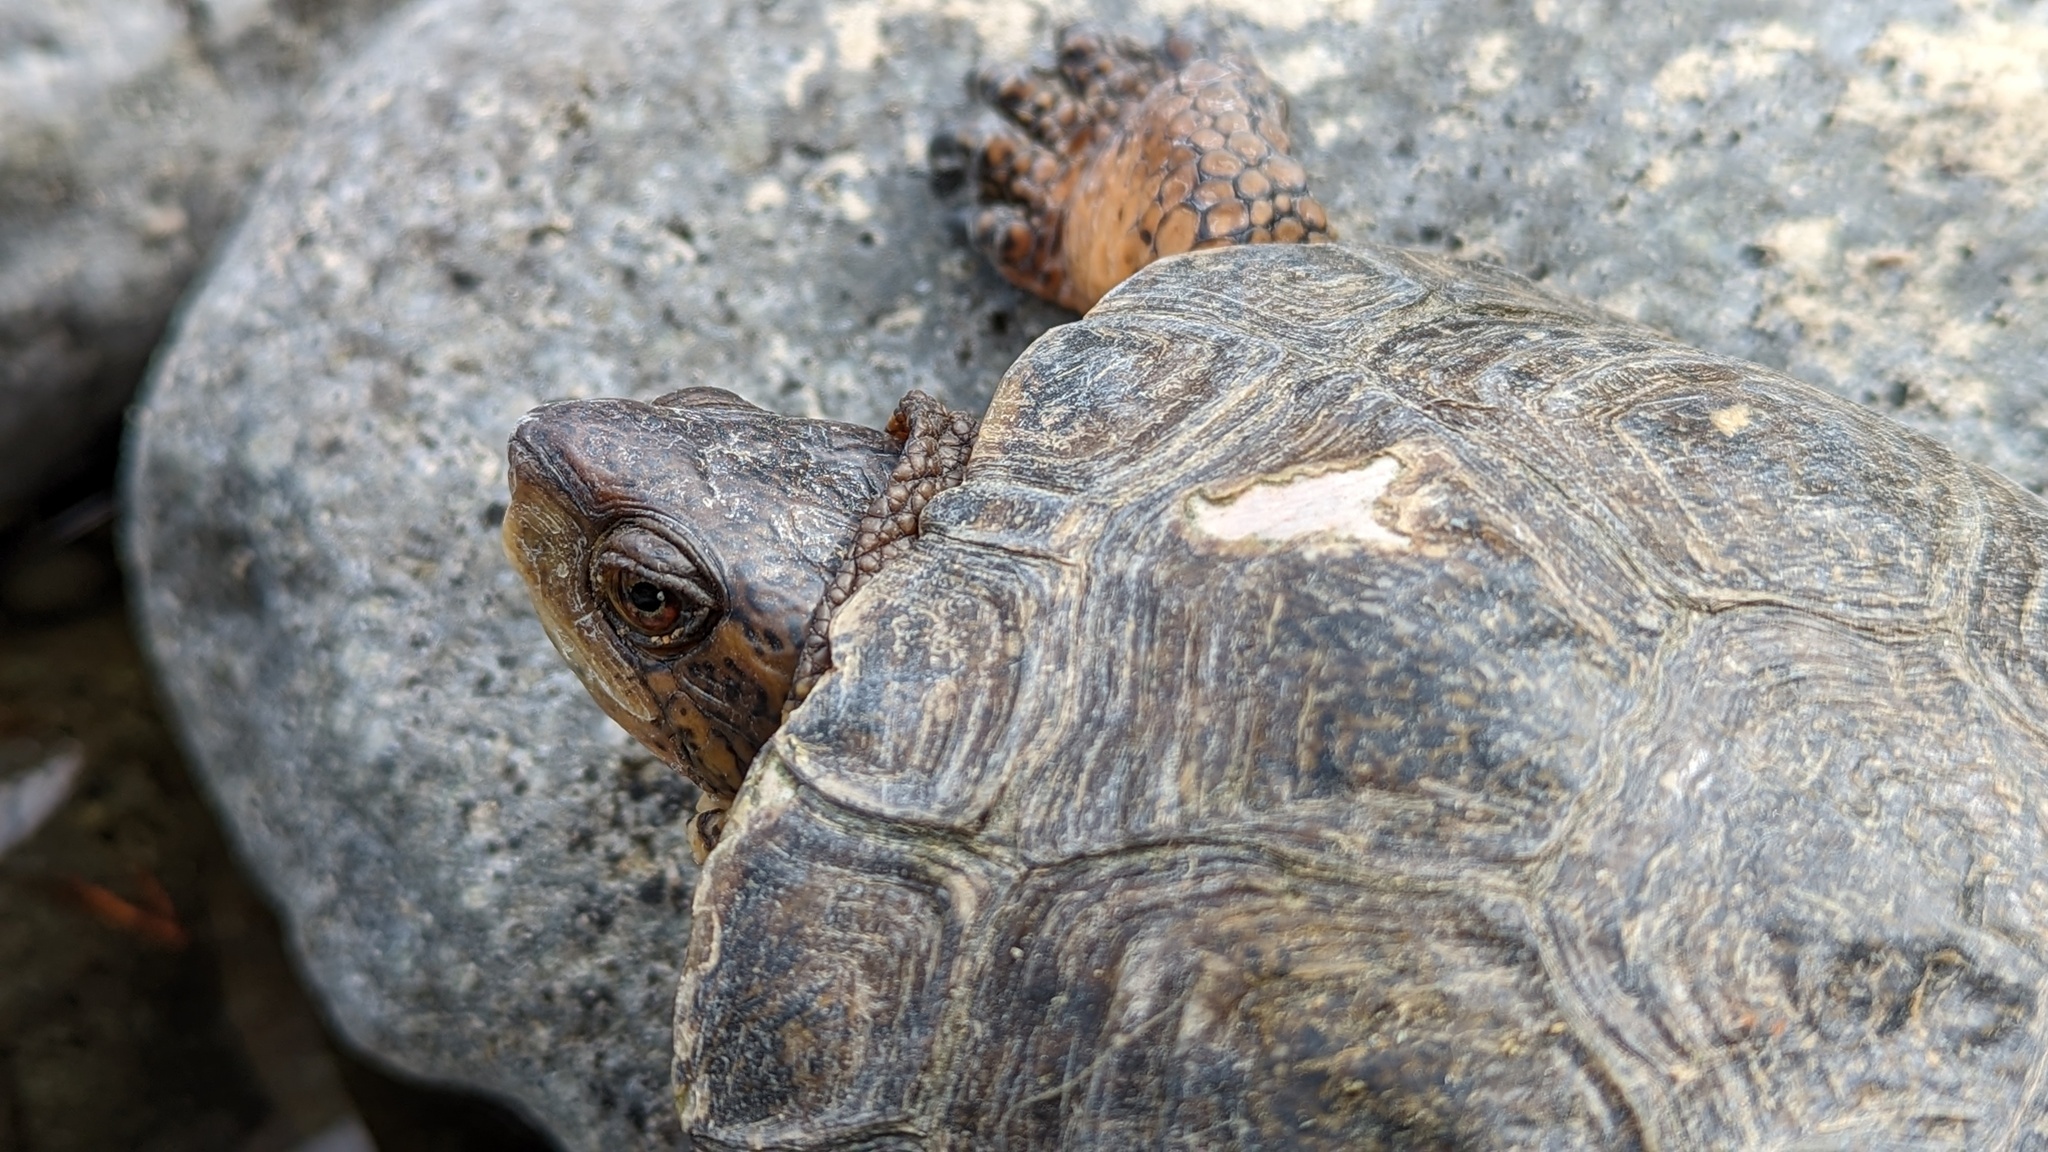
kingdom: Animalia
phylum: Chordata
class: Testudines
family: Emydidae
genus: Actinemys
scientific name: Actinemys marmorata
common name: Western pond turtle
